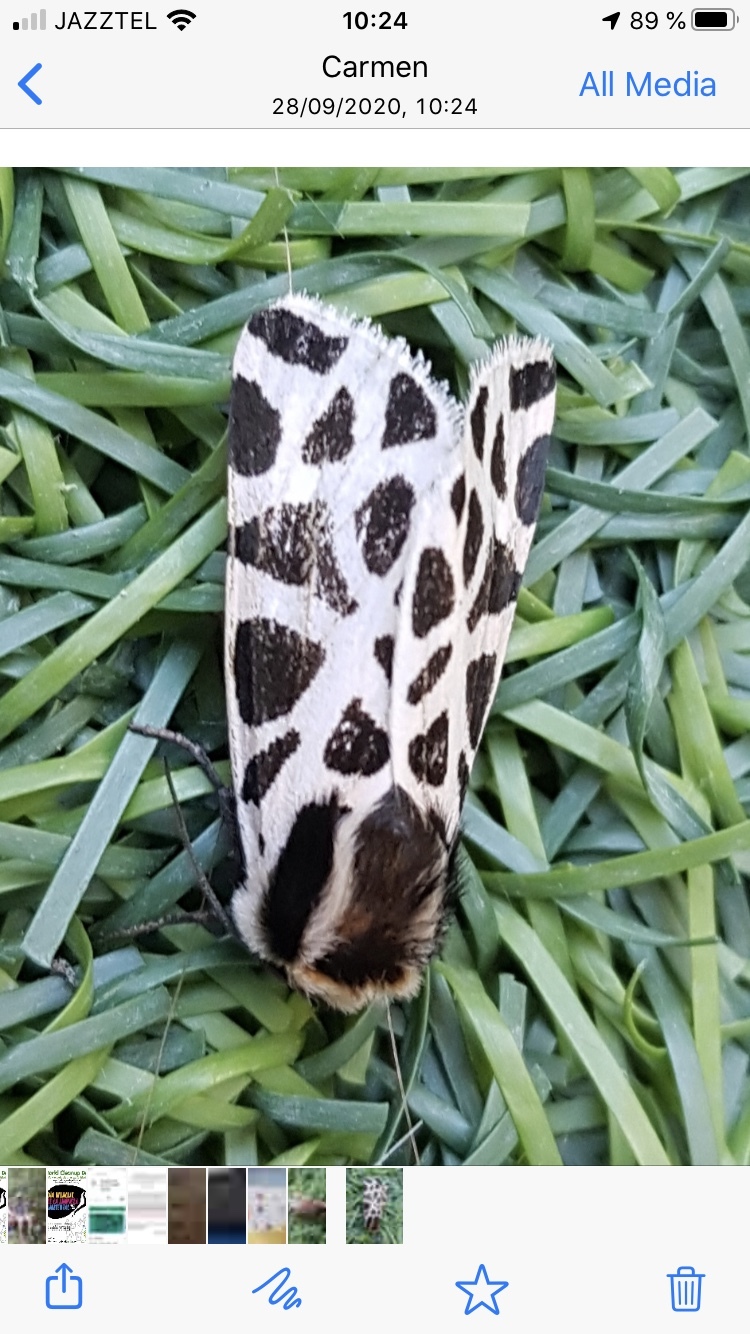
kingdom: Animalia
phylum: Arthropoda
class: Insecta
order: Lepidoptera
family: Erebidae
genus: Cymbalophora
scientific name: Cymbalophora pudica
